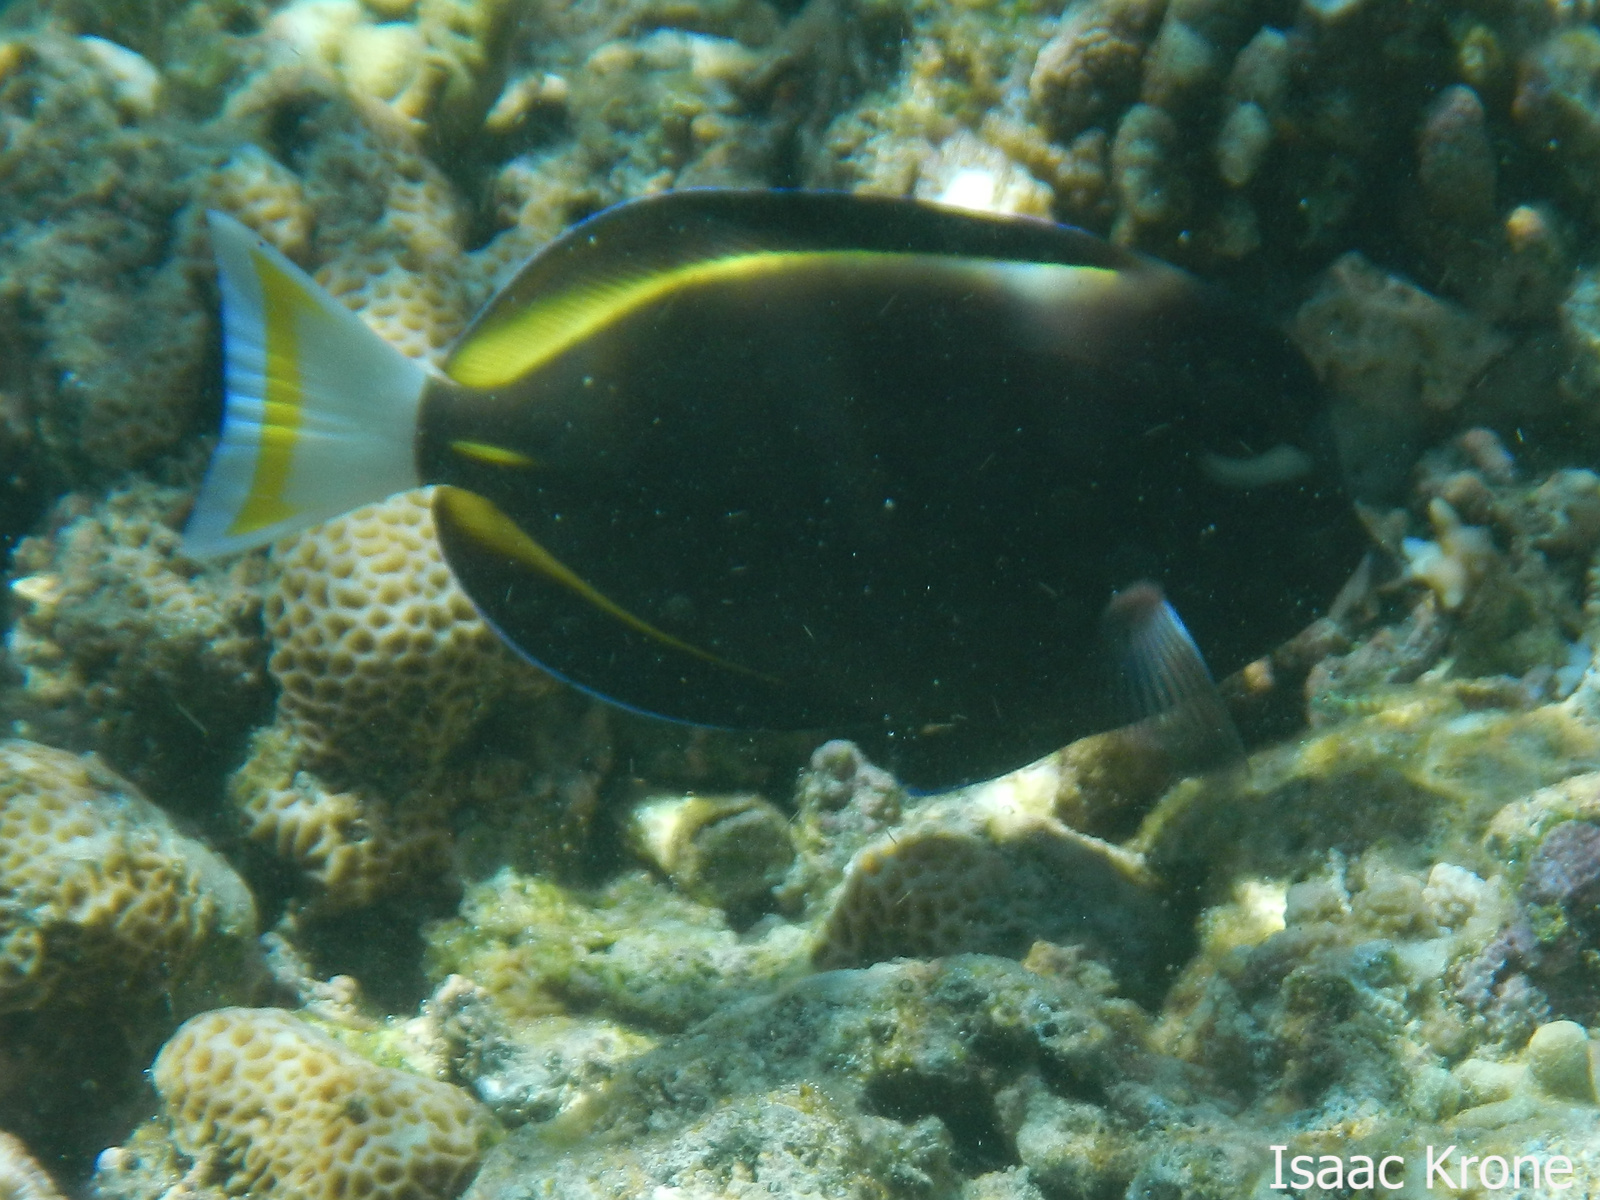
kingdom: Animalia
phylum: Chordata
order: Perciformes
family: Acanthuridae
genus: Acanthurus
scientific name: Acanthurus nigricans
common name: Whitecheek surgeonfish
